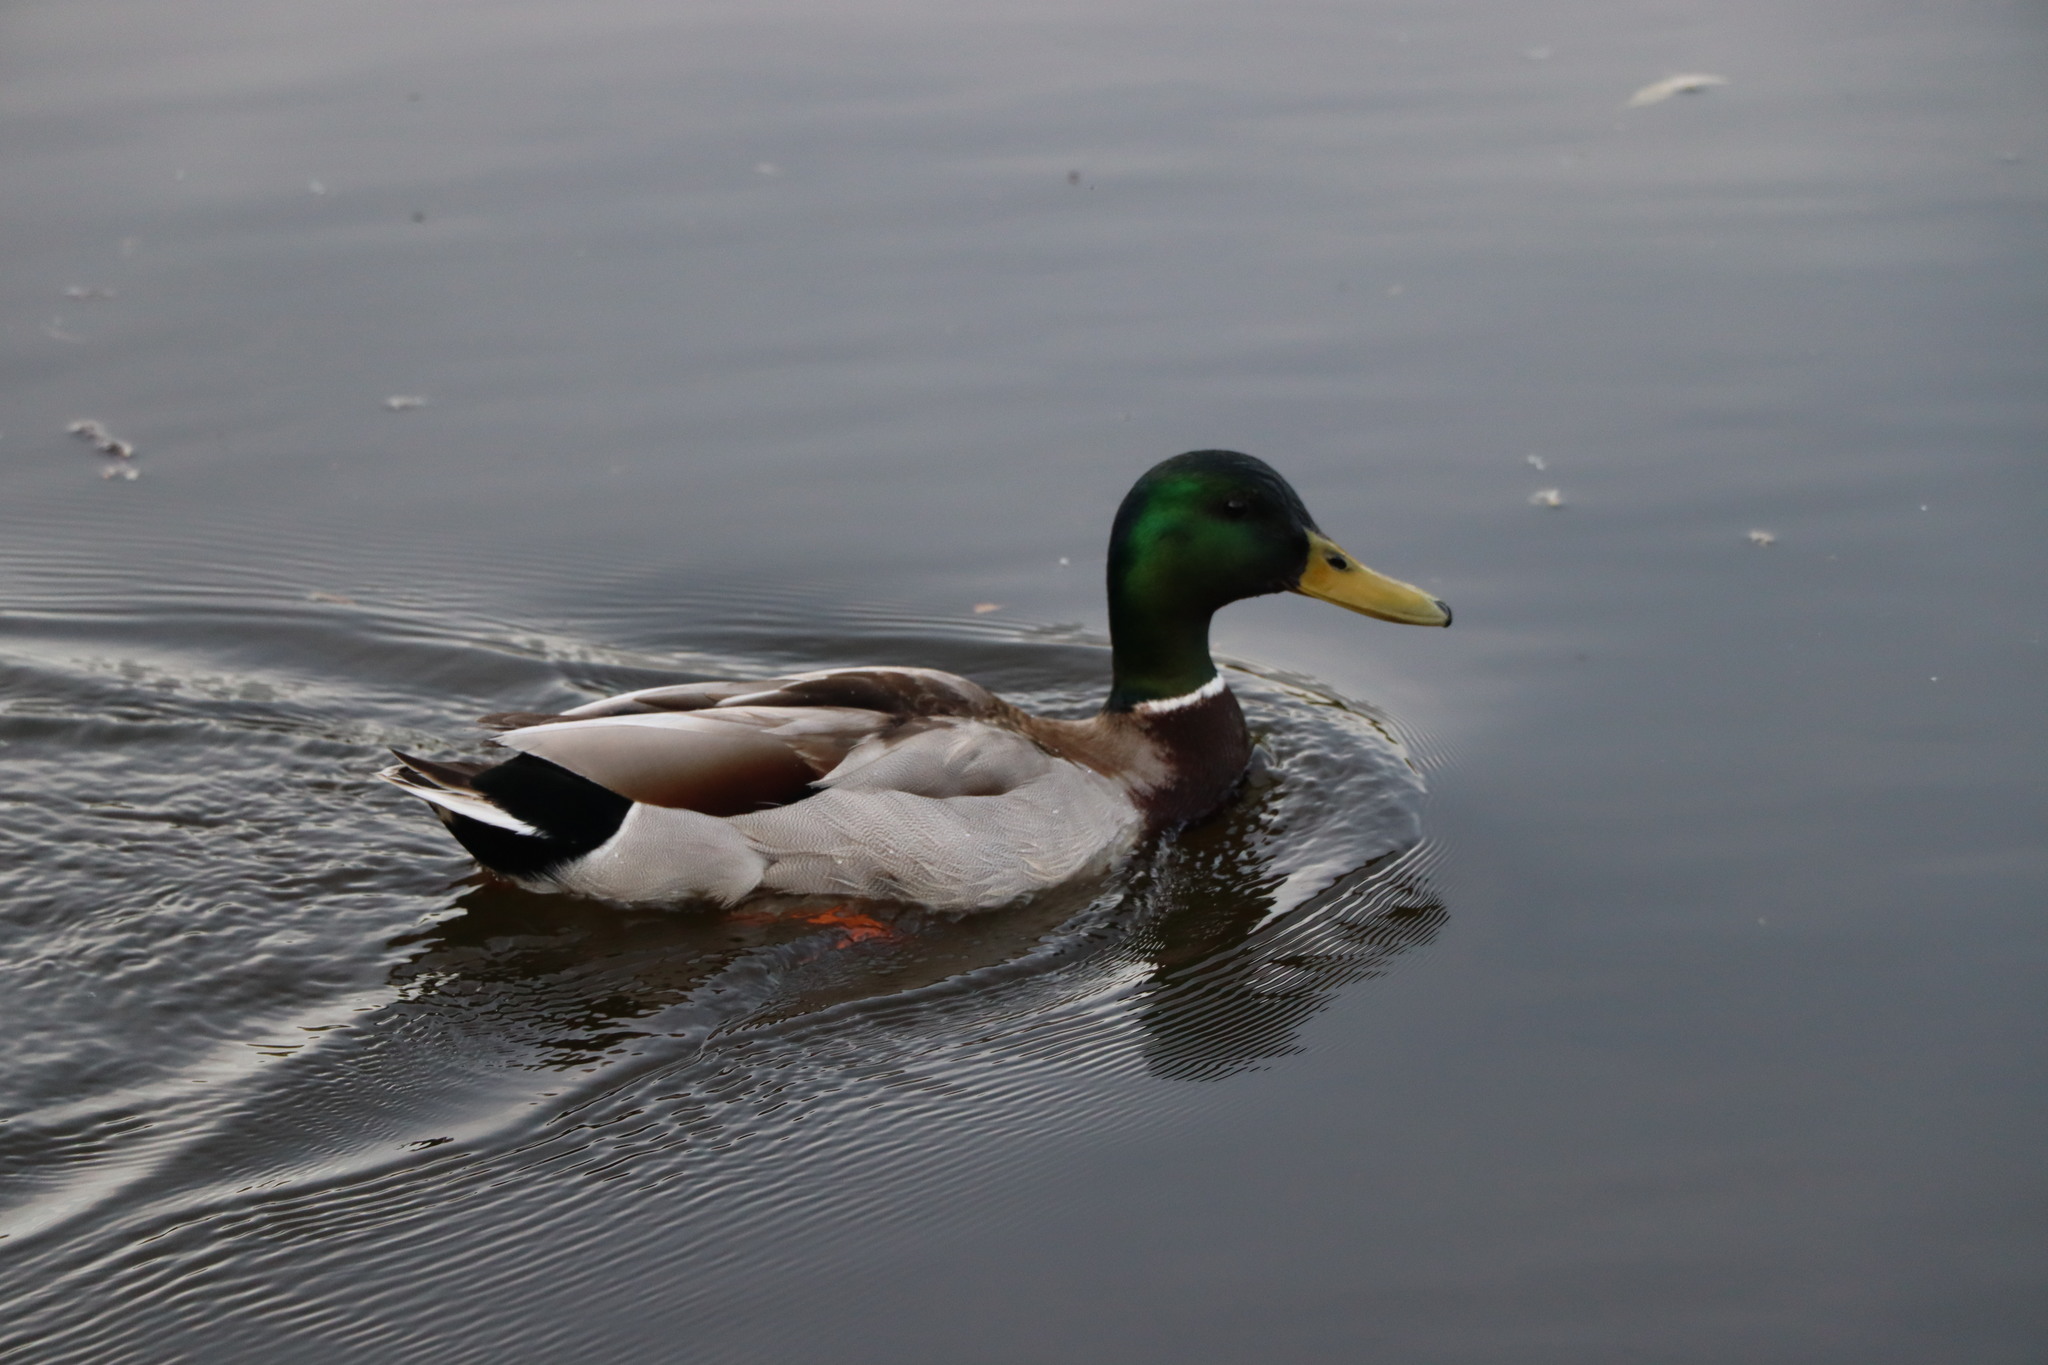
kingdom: Animalia
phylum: Chordata
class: Aves
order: Anseriformes
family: Anatidae
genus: Anas
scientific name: Anas platyrhynchos
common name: Mallard
